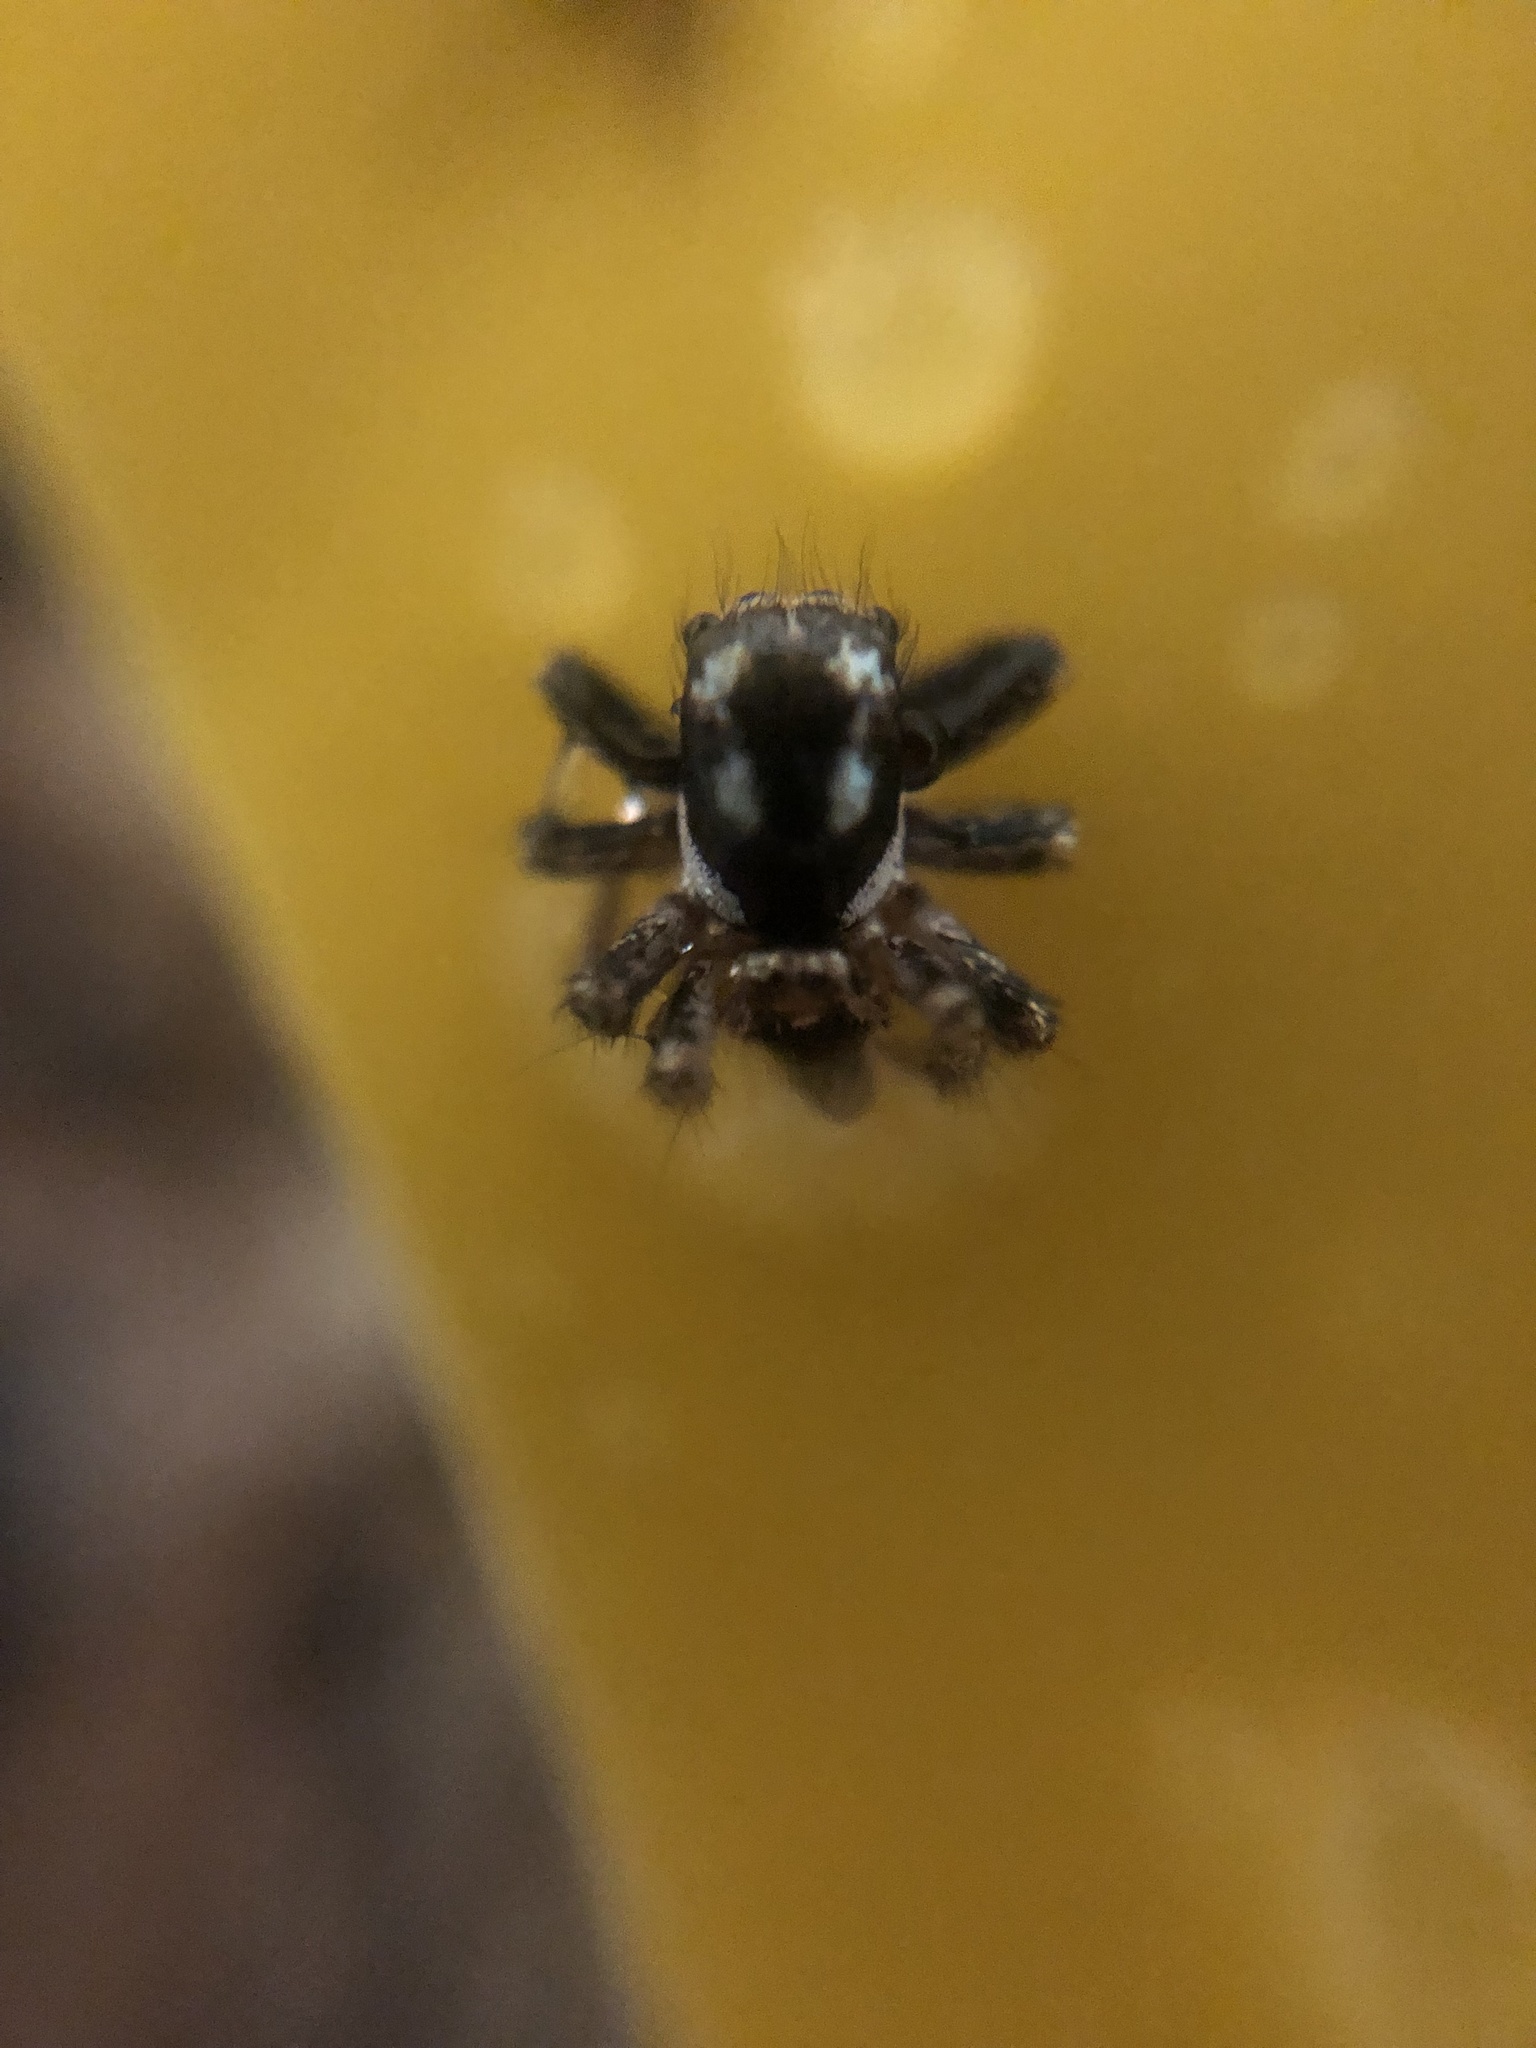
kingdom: Animalia
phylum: Arthropoda
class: Arachnida
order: Araneae
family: Salticidae
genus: Anasaitis
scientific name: Anasaitis canosa
